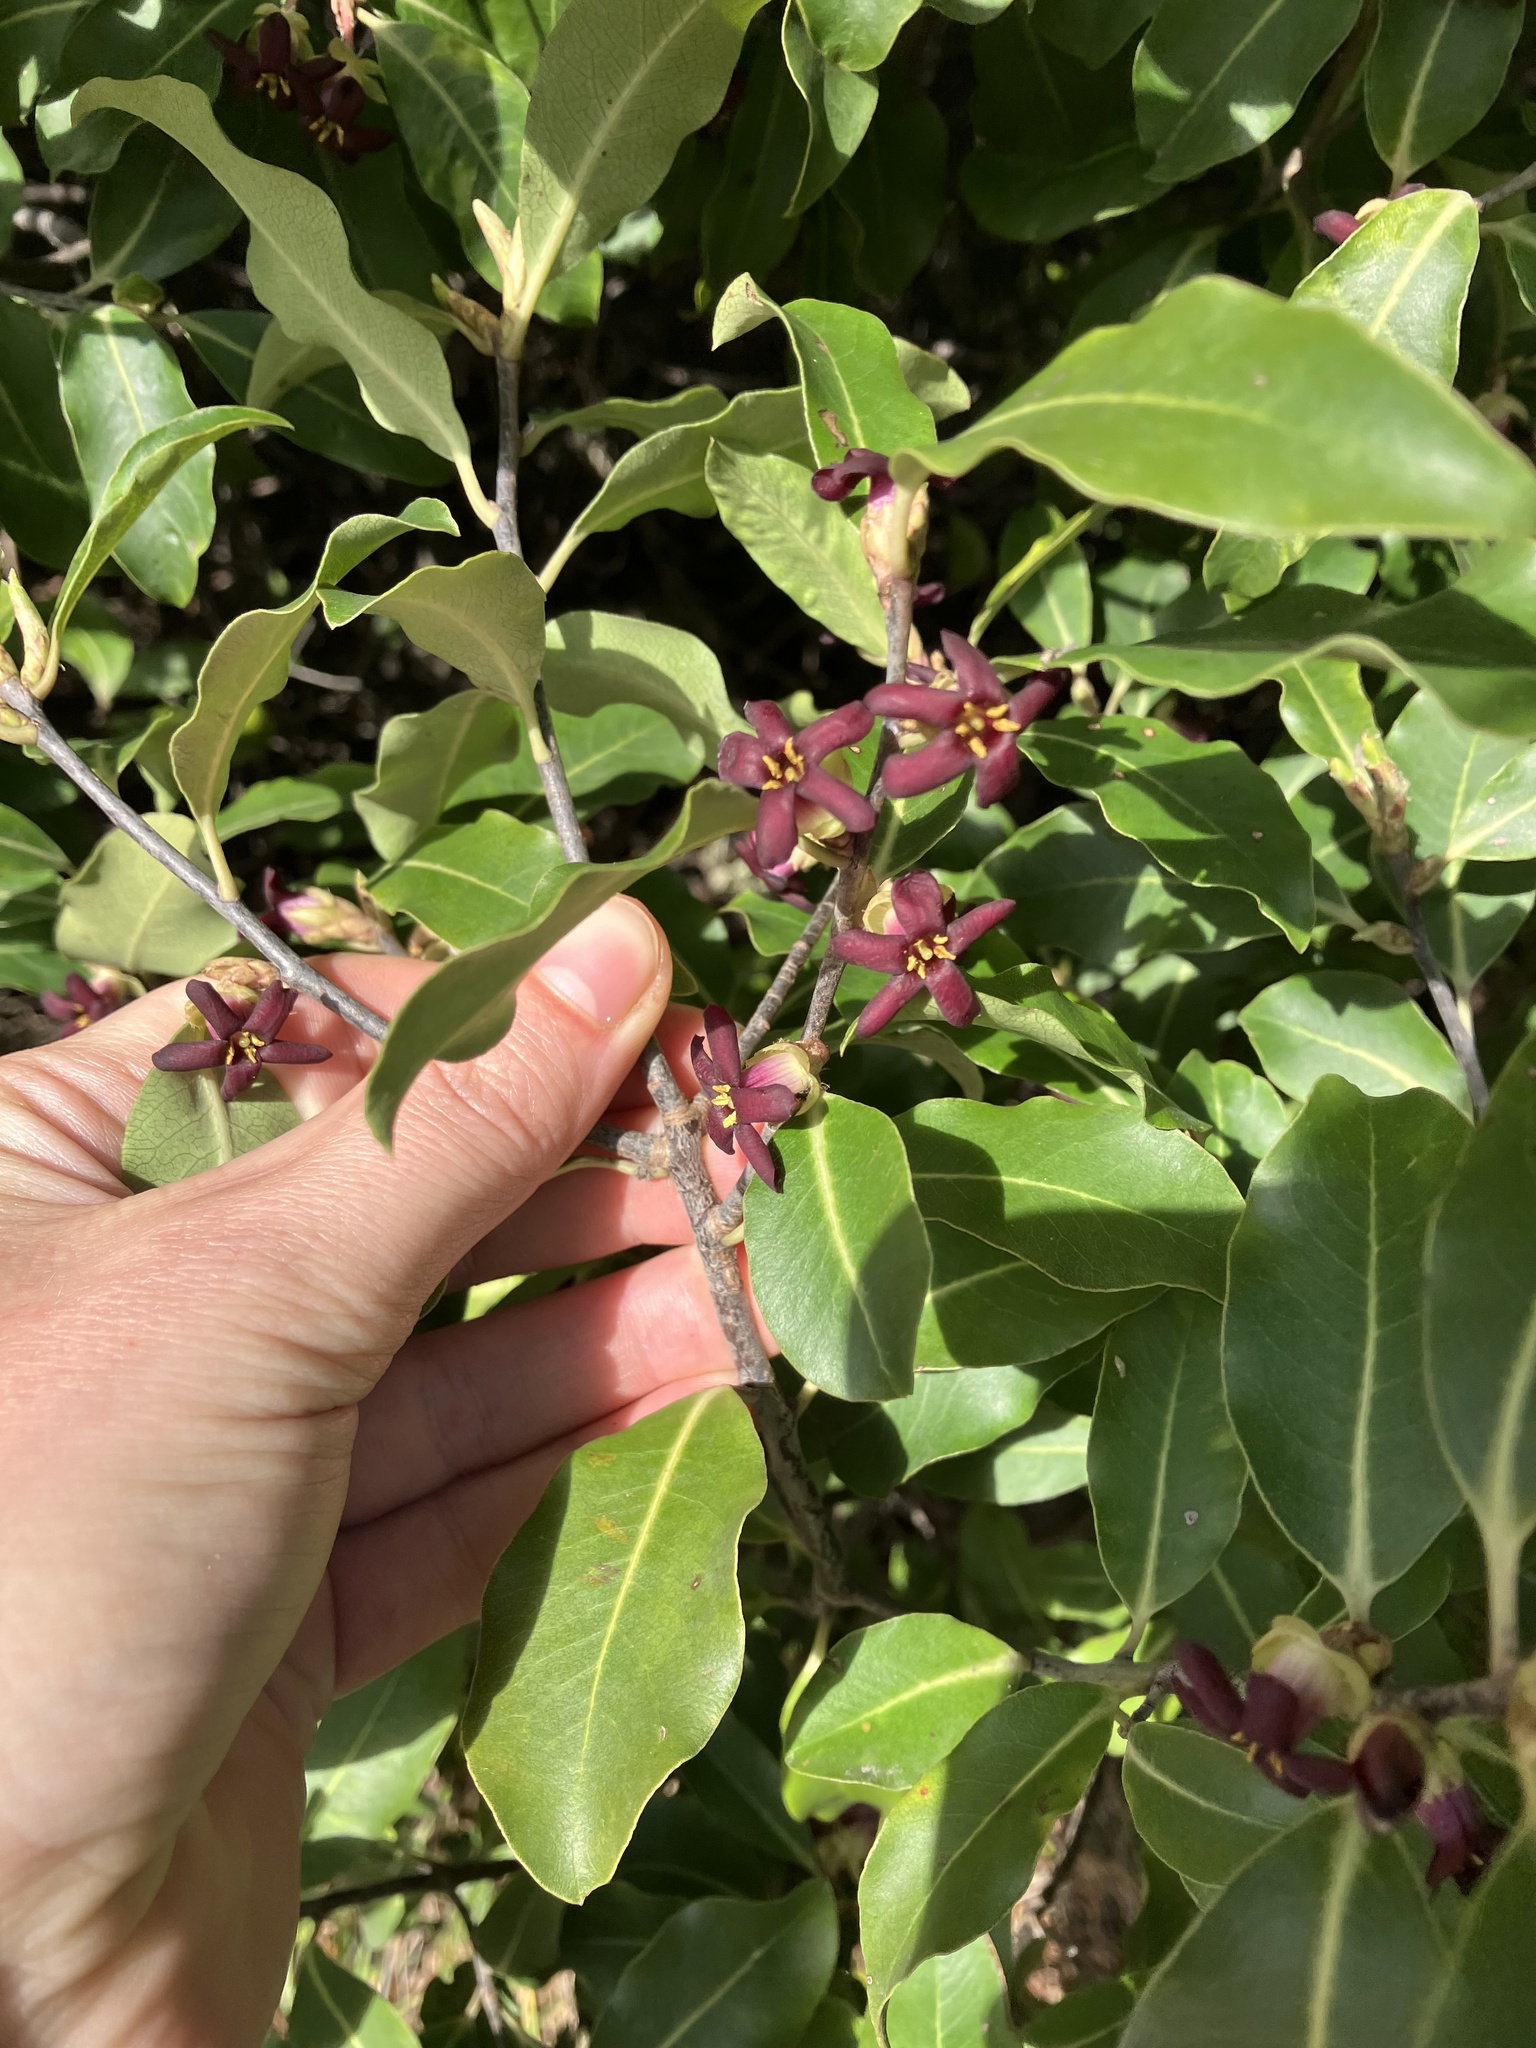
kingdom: Plantae
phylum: Tracheophyta
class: Magnoliopsida
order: Apiales
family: Pittosporaceae
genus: Pittosporum
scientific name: Pittosporum colensoi
